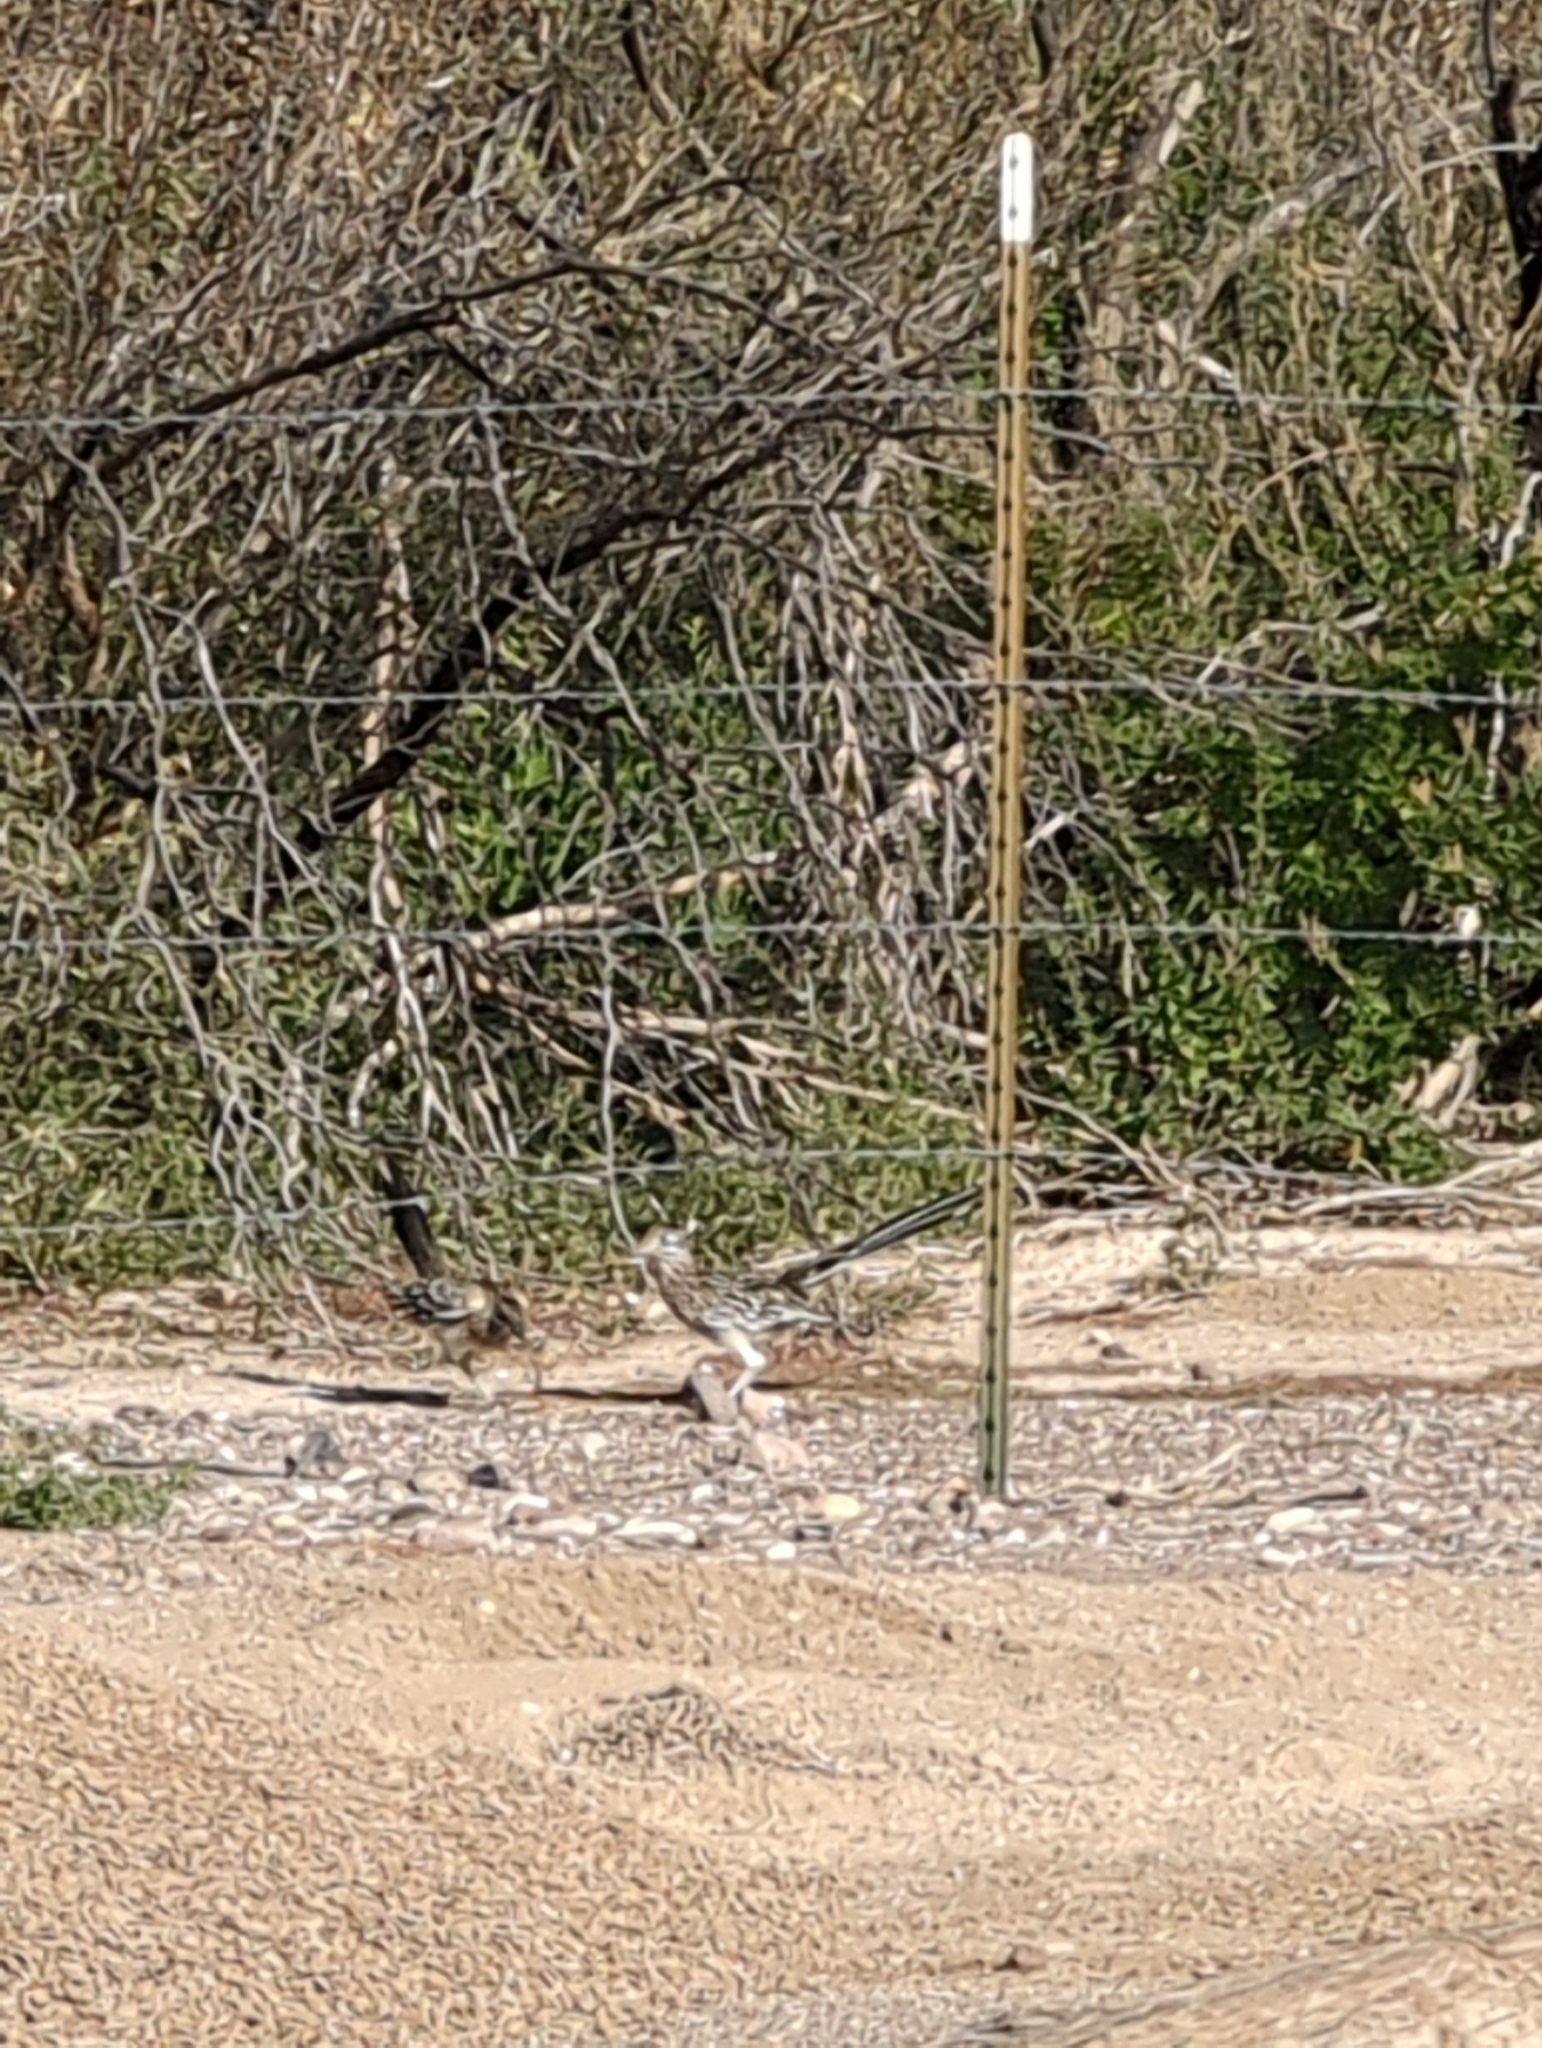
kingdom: Animalia
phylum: Chordata
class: Aves
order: Cuculiformes
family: Cuculidae
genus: Geococcyx
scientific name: Geococcyx californianus
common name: Greater roadrunner
